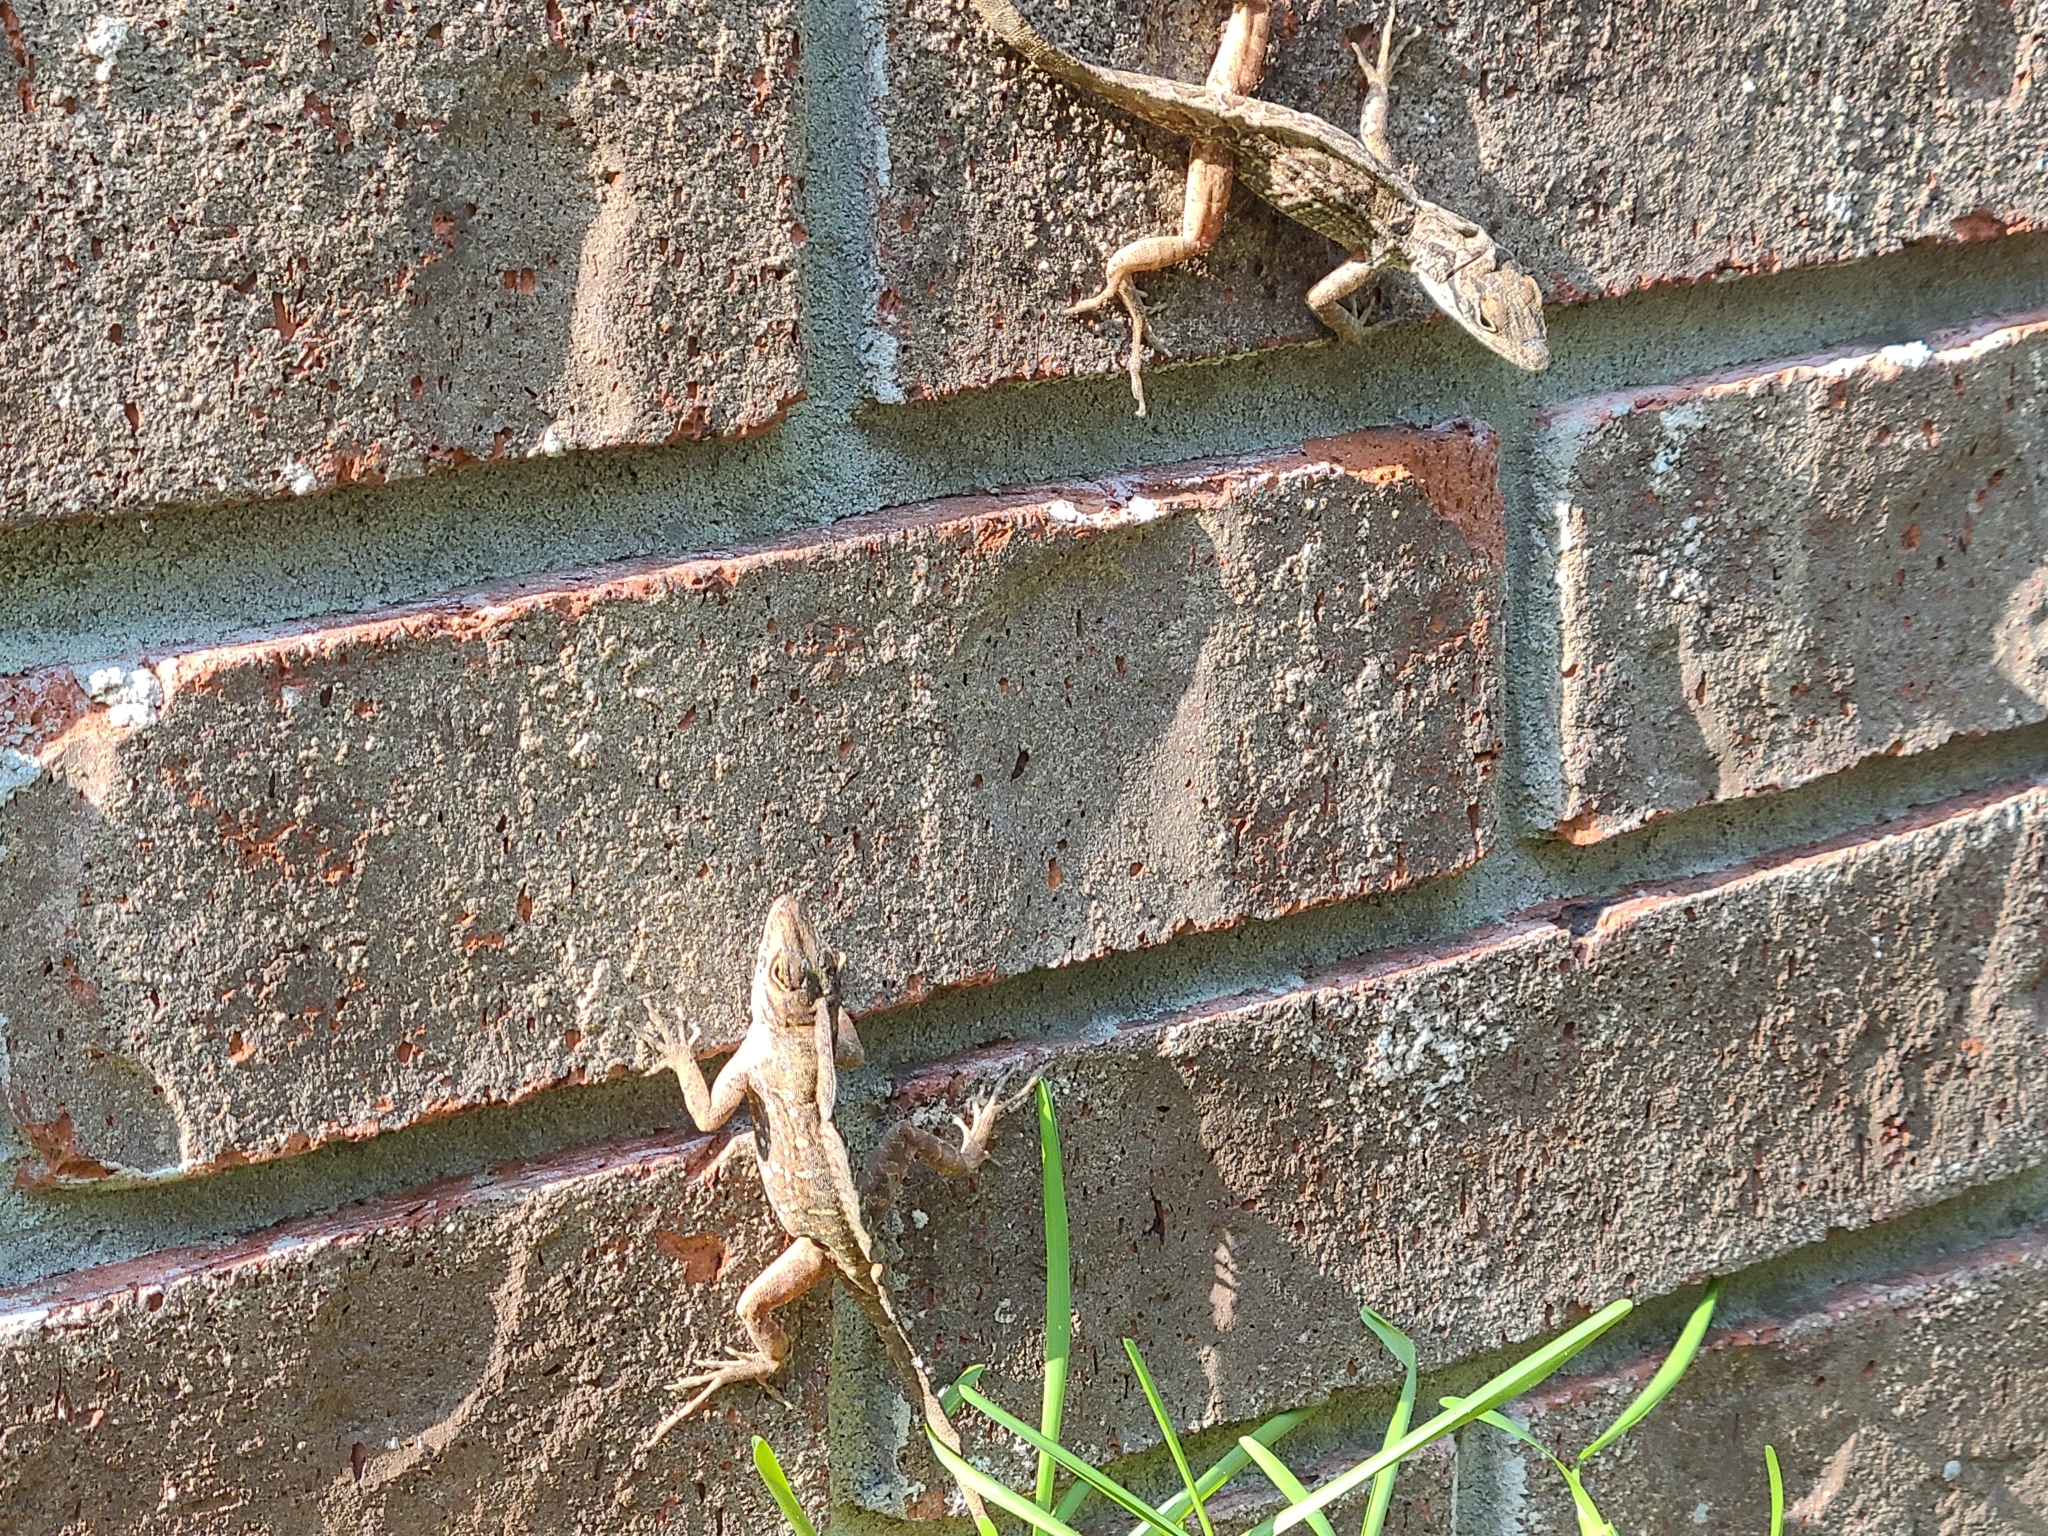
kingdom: Animalia
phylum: Chordata
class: Squamata
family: Dactyloidae
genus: Anolis
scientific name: Anolis sagrei
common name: Brown anole
